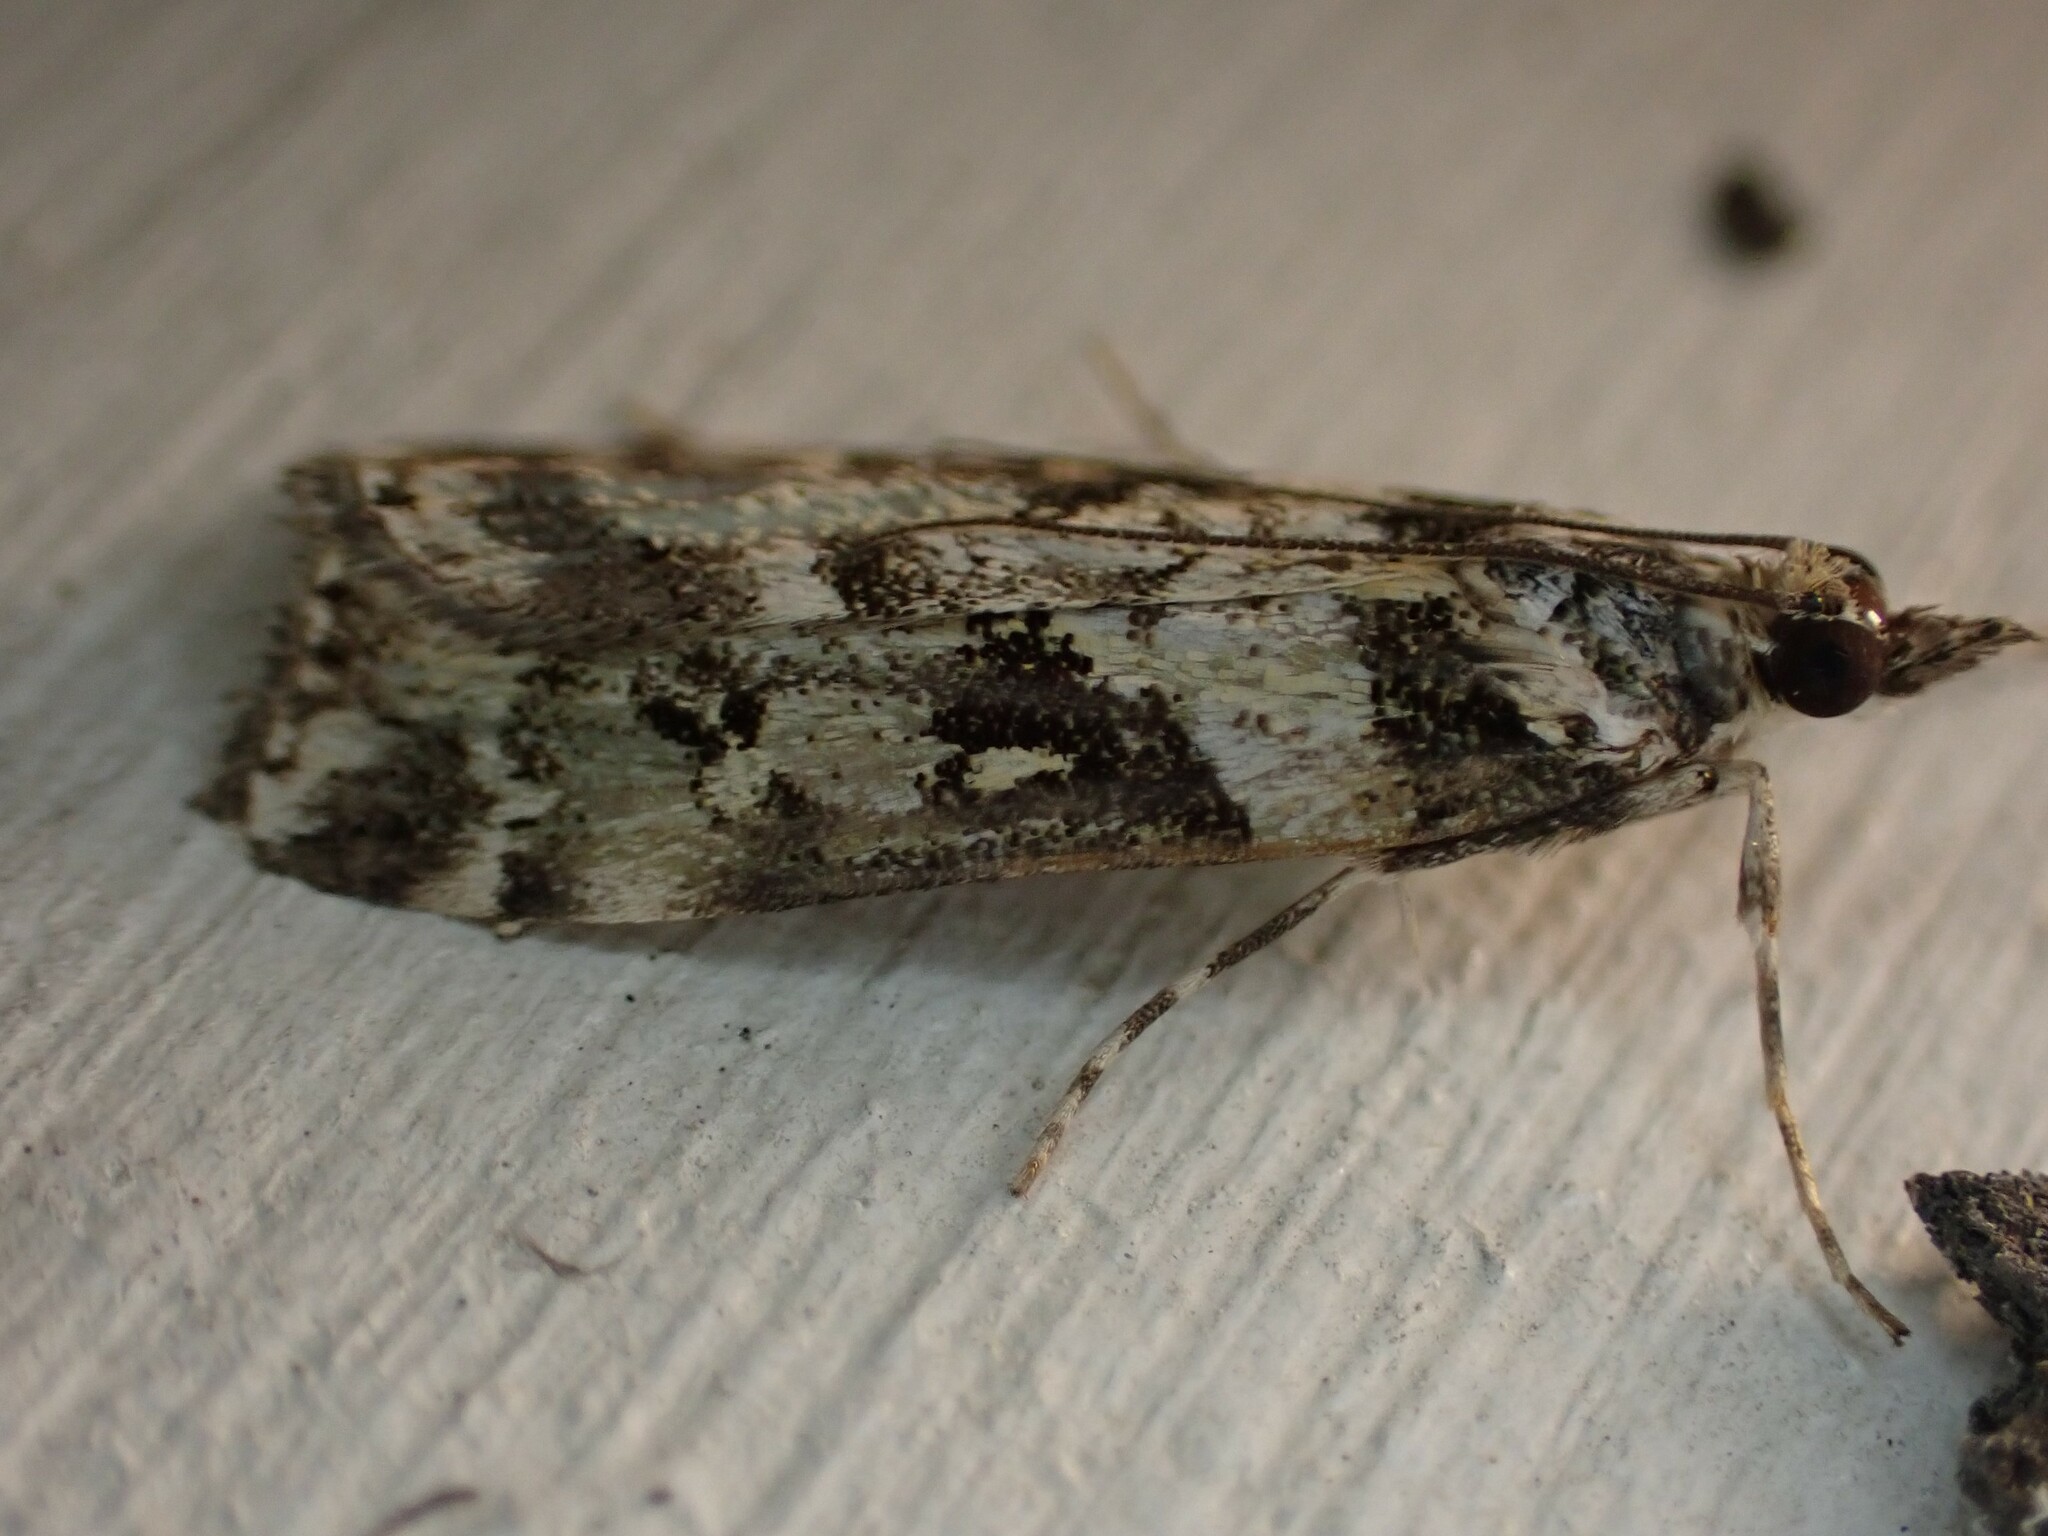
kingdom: Animalia
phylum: Arthropoda
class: Insecta
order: Lepidoptera
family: Crambidae
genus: Eudonia
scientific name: Eudonia diphtheralis
